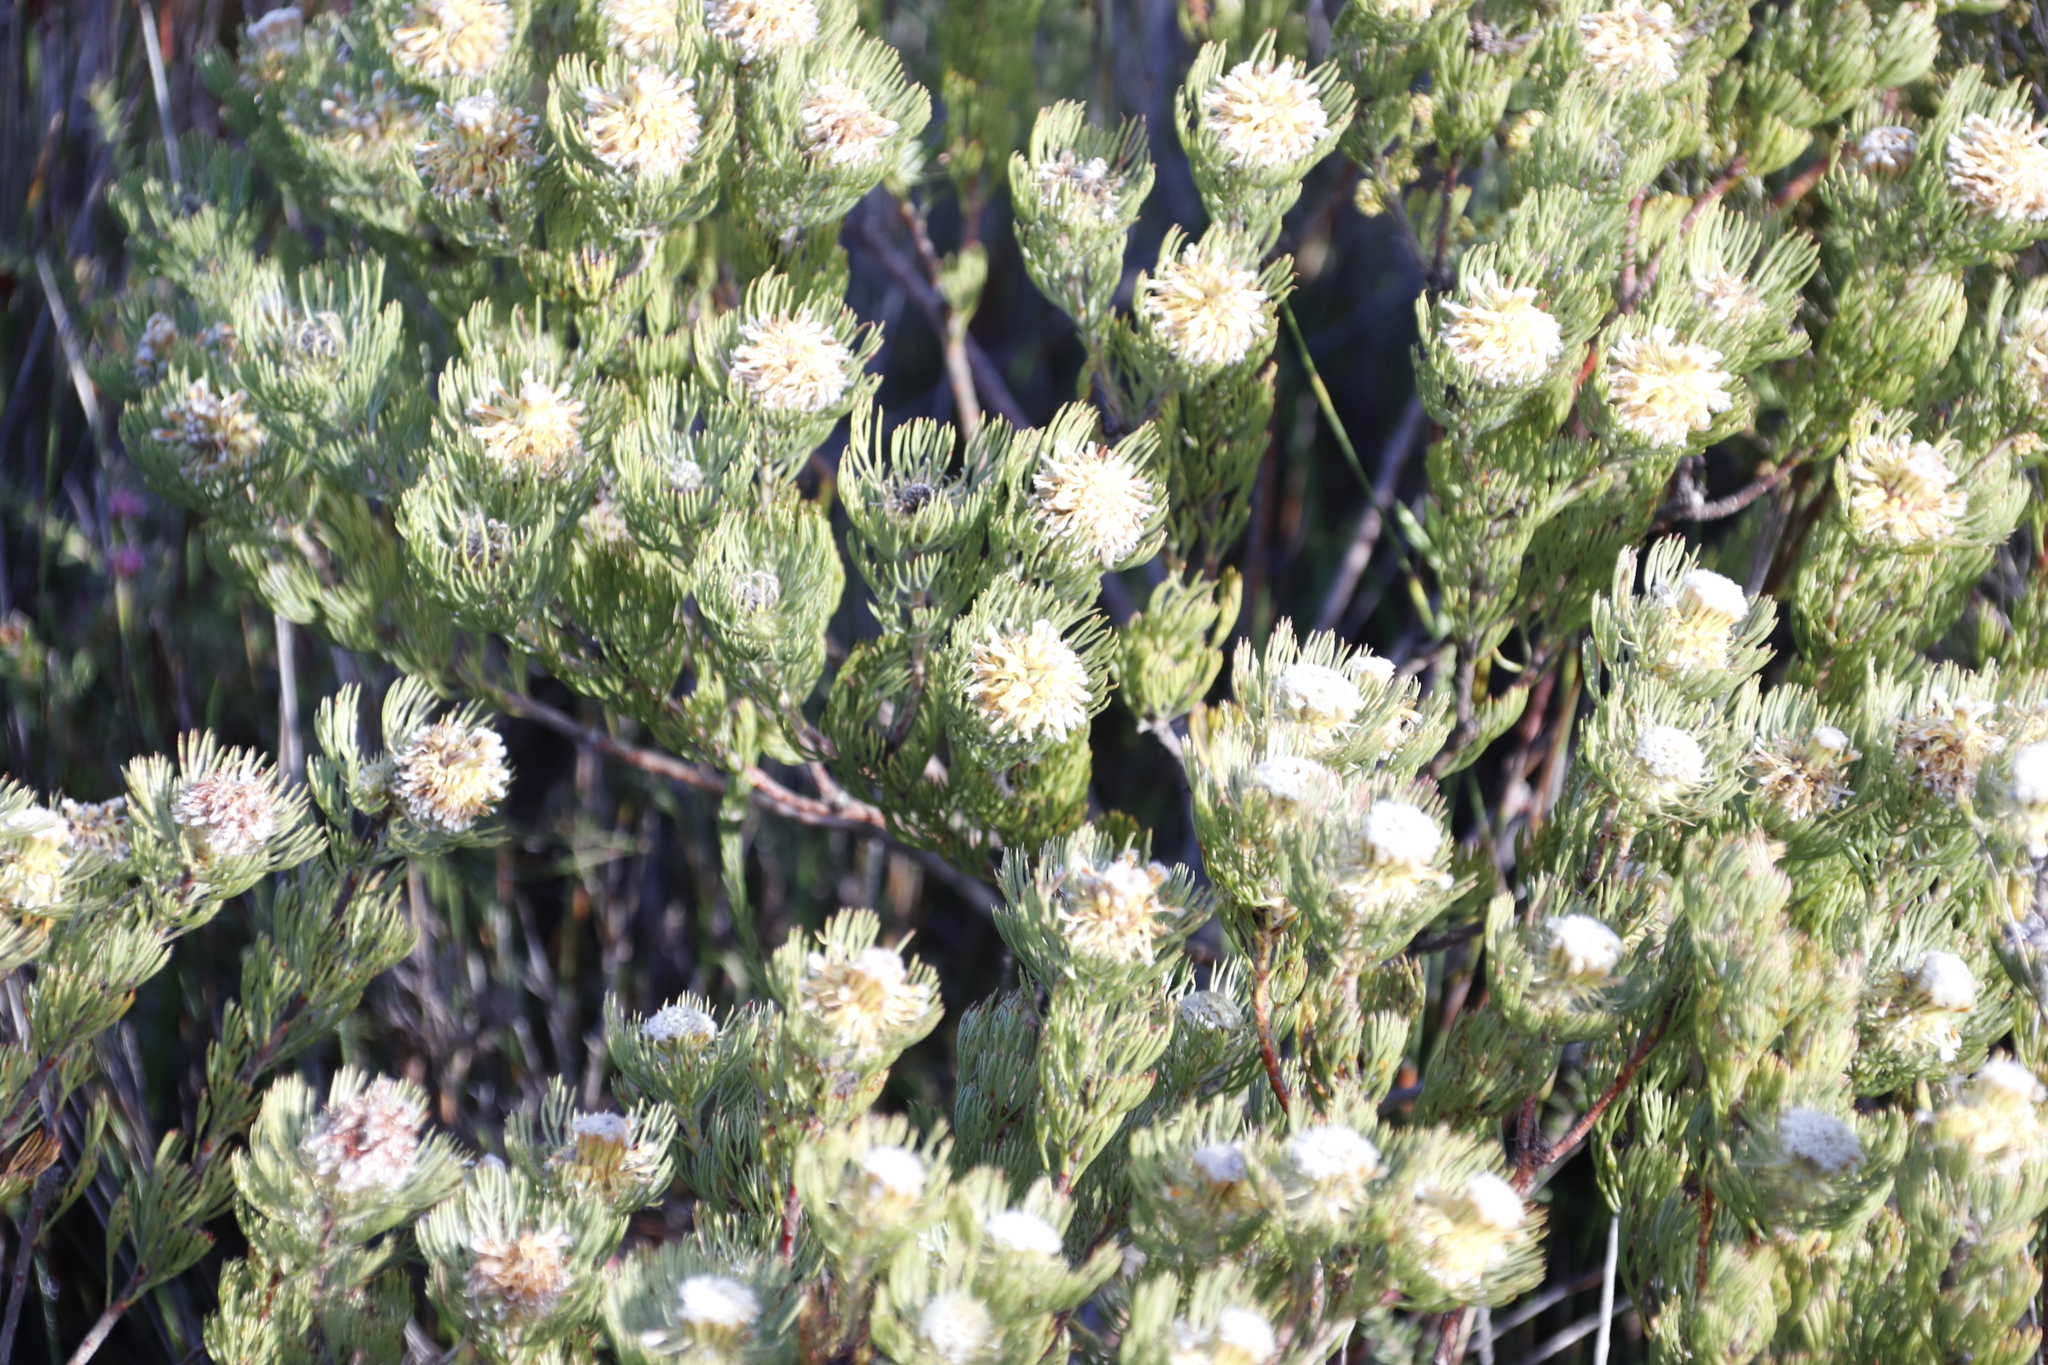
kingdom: Plantae
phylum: Tracheophyta
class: Magnoliopsida
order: Proteales
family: Proteaceae
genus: Serruria
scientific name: Serruria villosa
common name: Golden spiderhead
